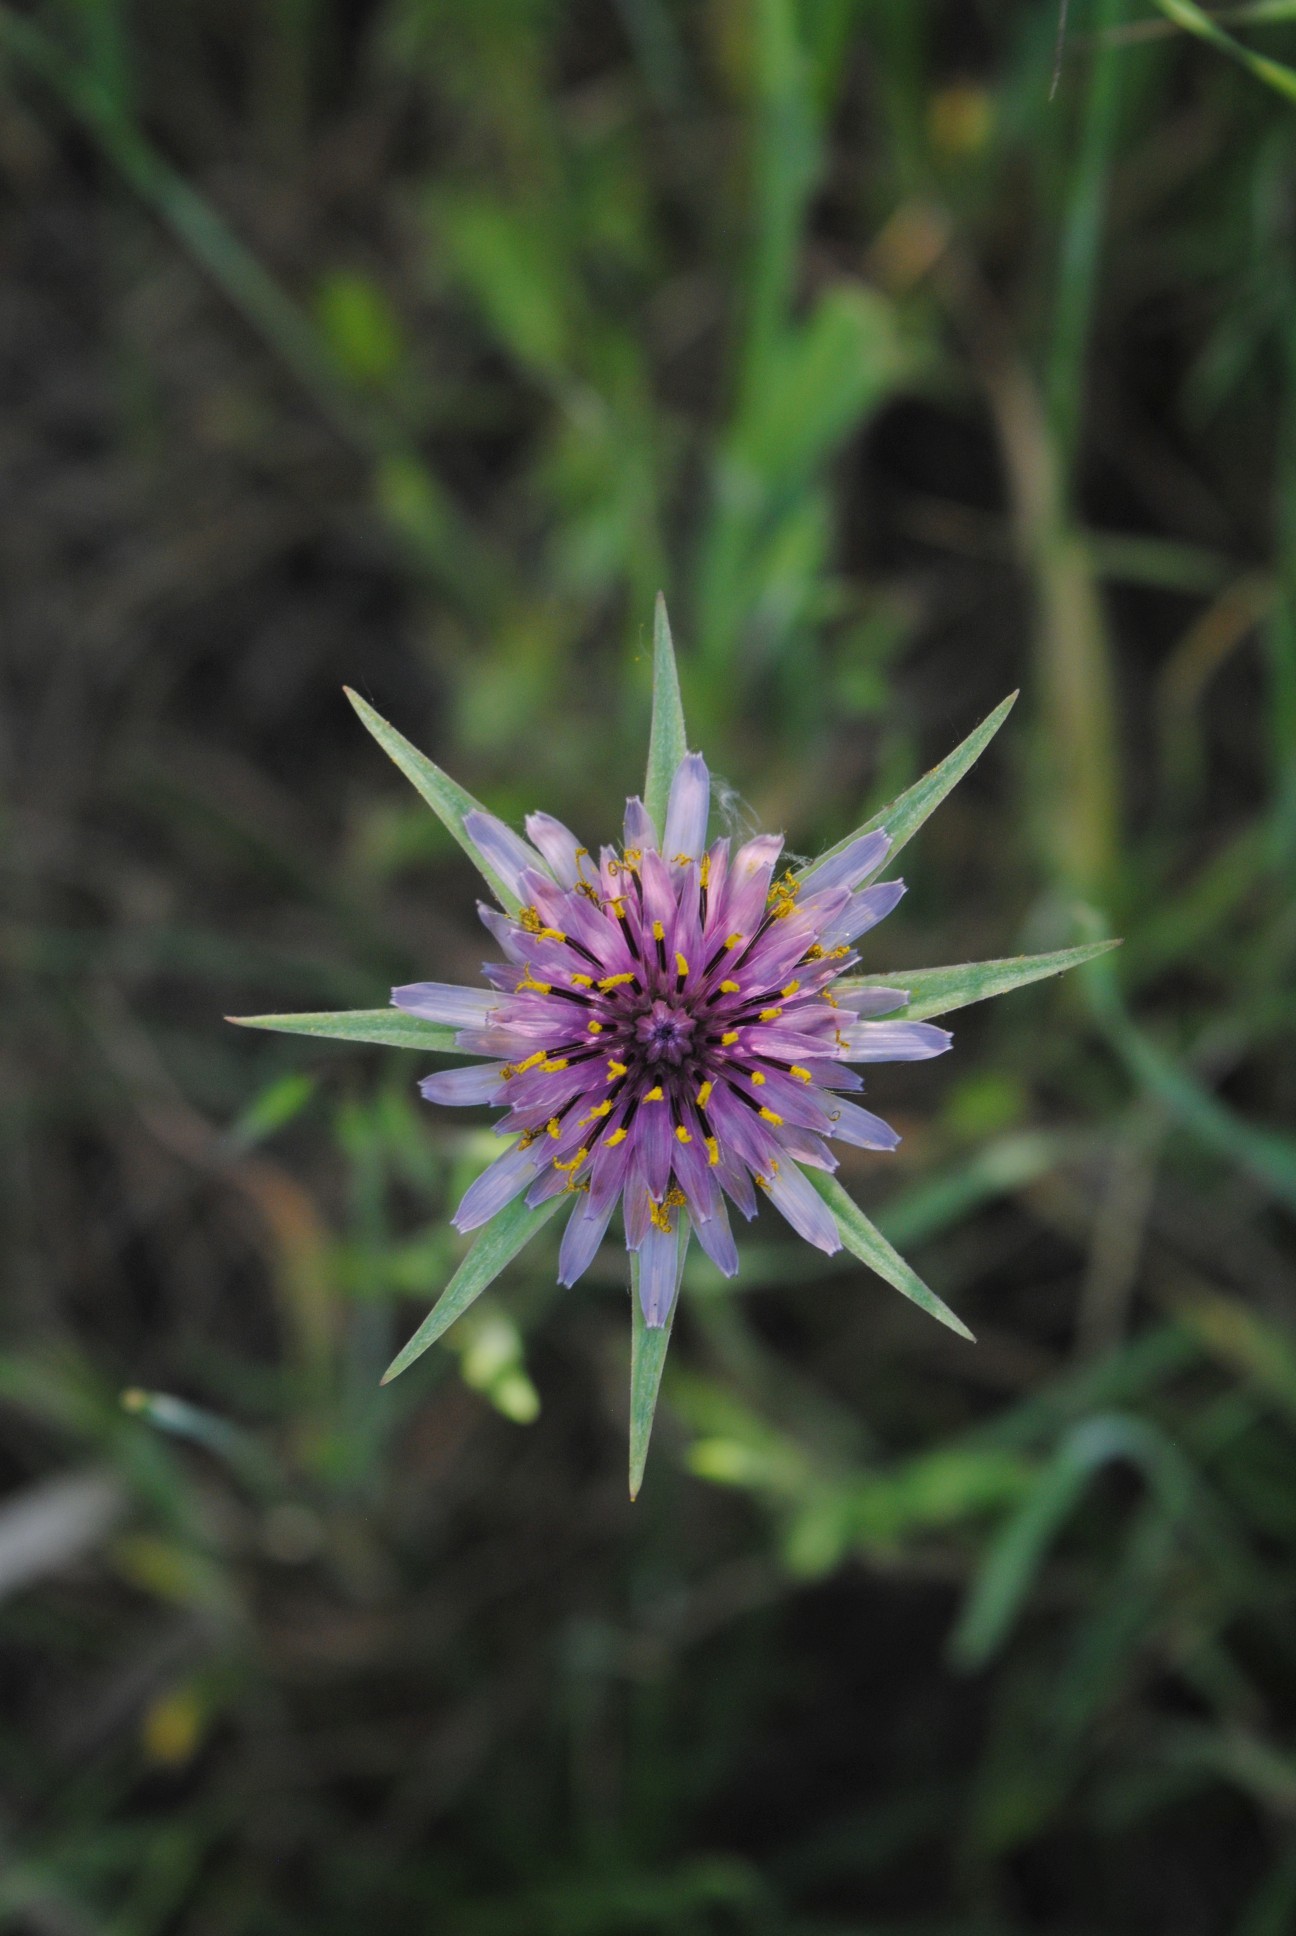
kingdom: Plantae
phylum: Tracheophyta
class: Magnoliopsida
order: Asterales
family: Asteraceae
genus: Tragopogon
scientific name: Tragopogon porrifolius
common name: Salsify
